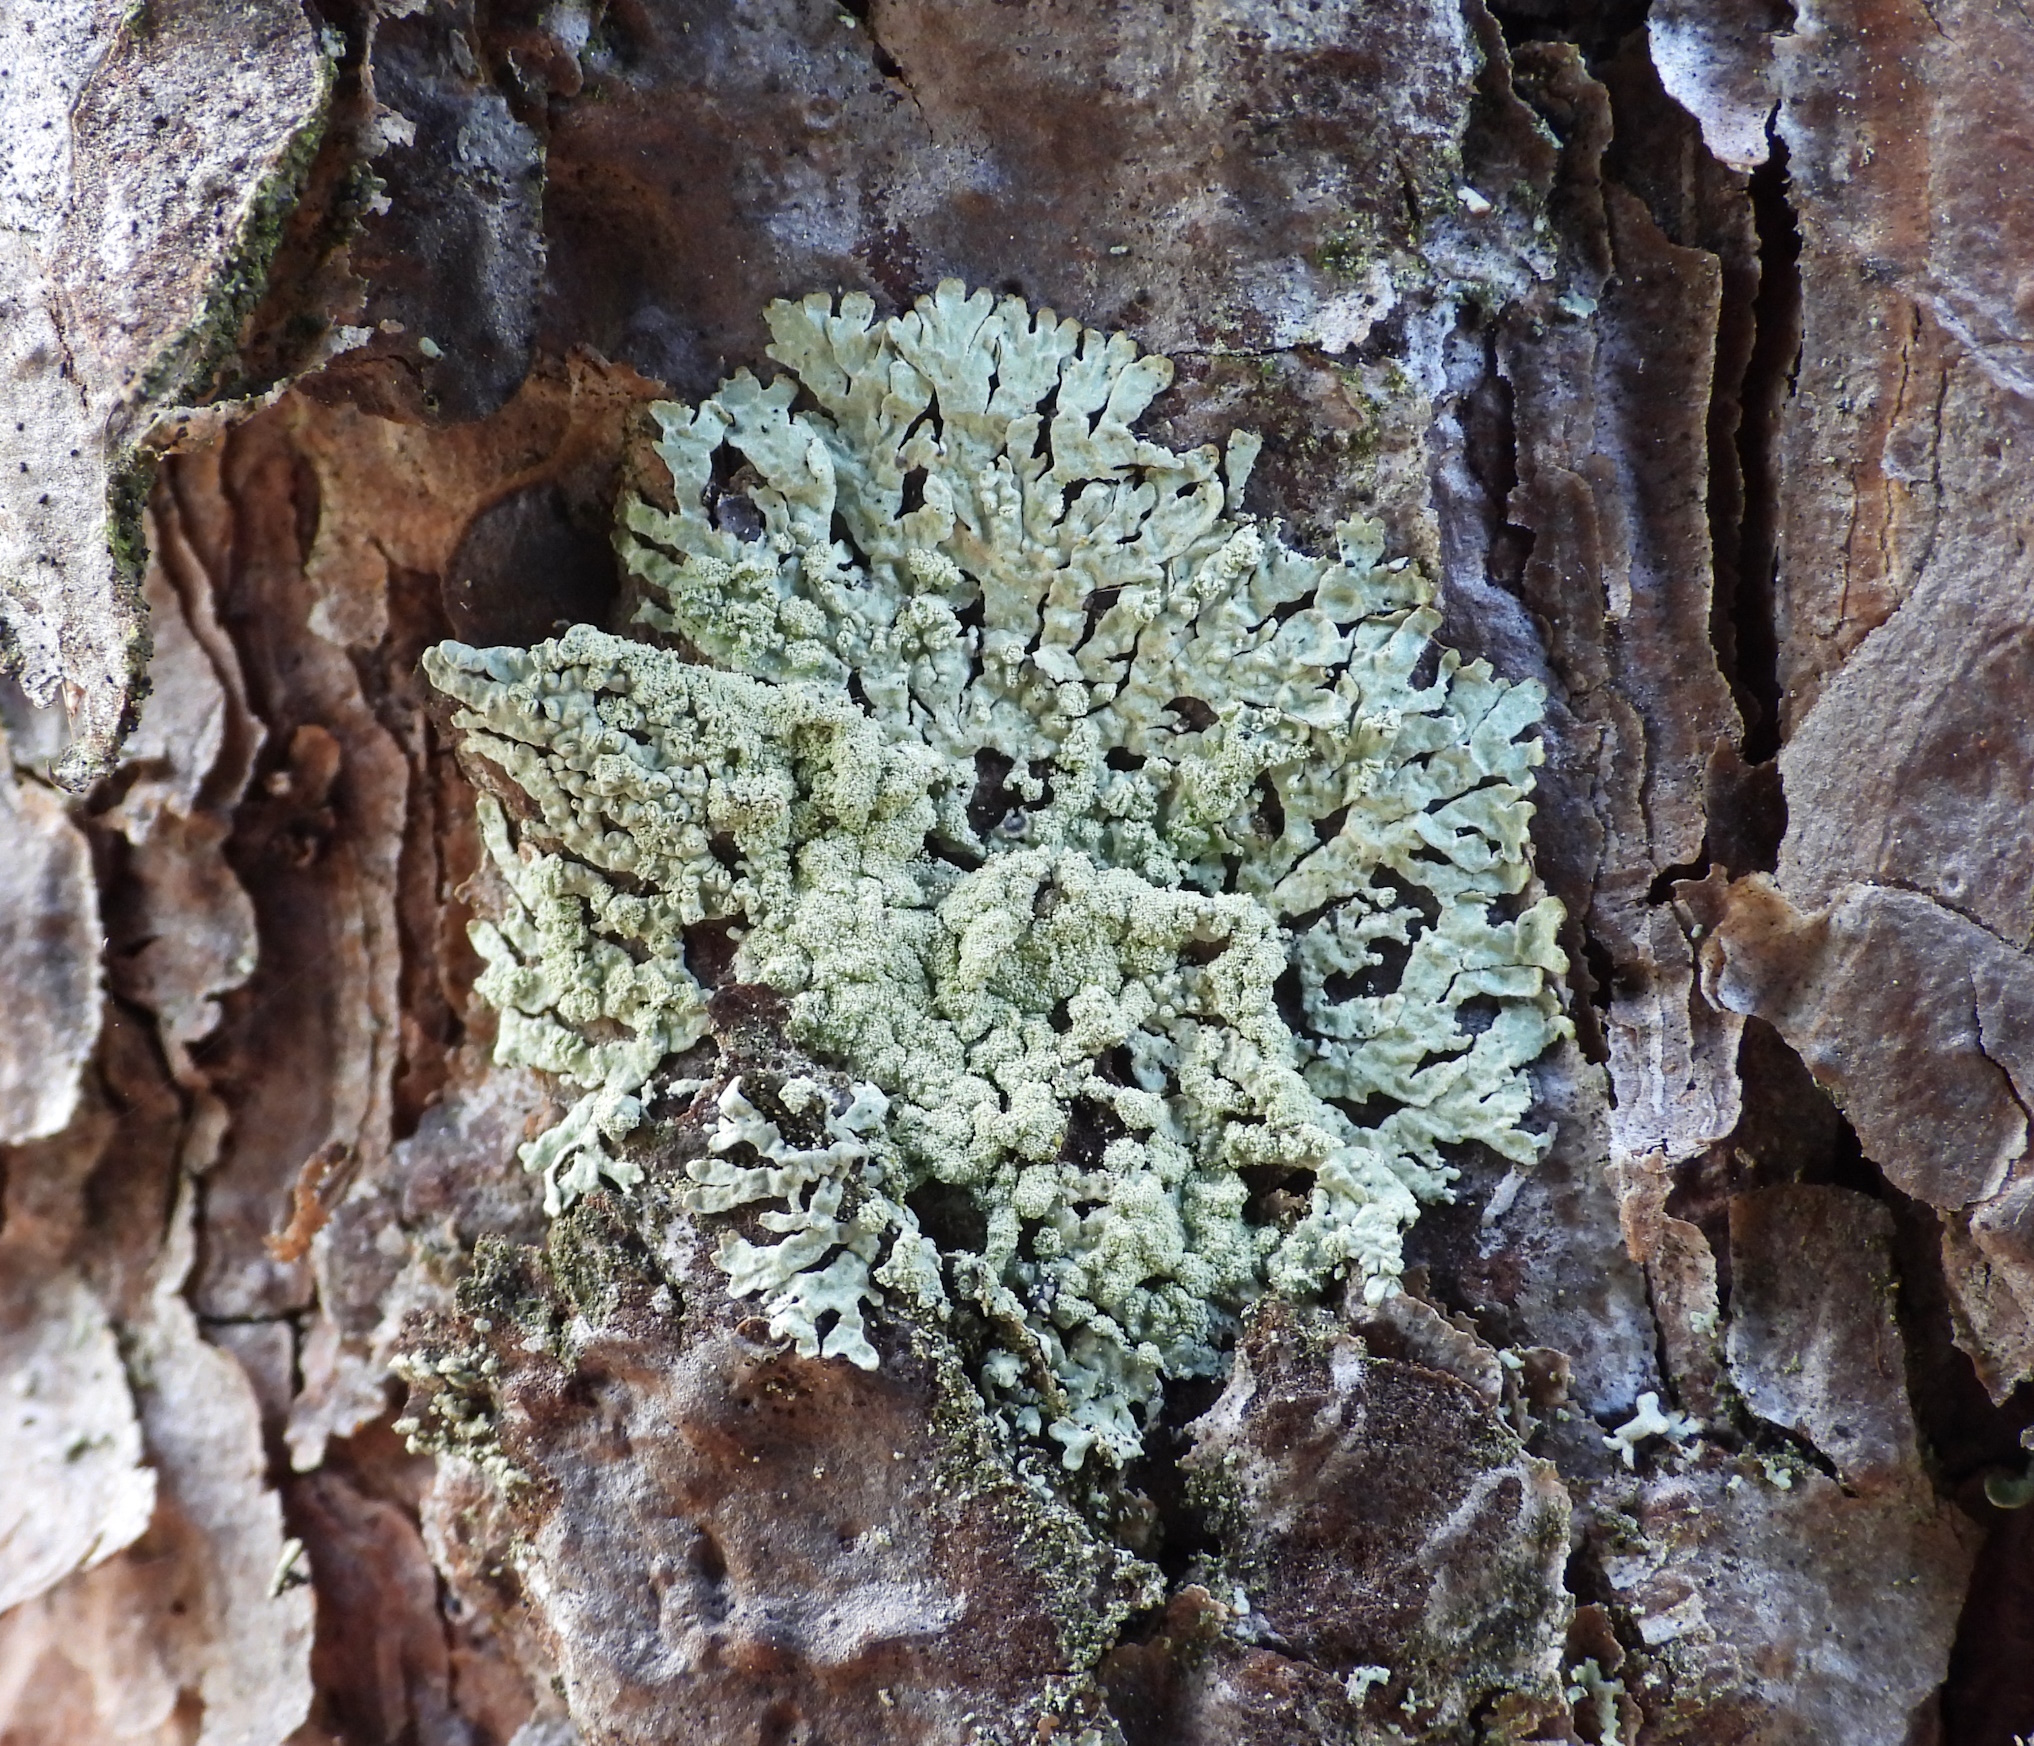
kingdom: Fungi
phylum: Ascomycota
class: Lecanoromycetes
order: Lecanorales
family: Parmeliaceae
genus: Parmeliopsis
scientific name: Parmeliopsis ambigua
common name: Green starburst lichen
